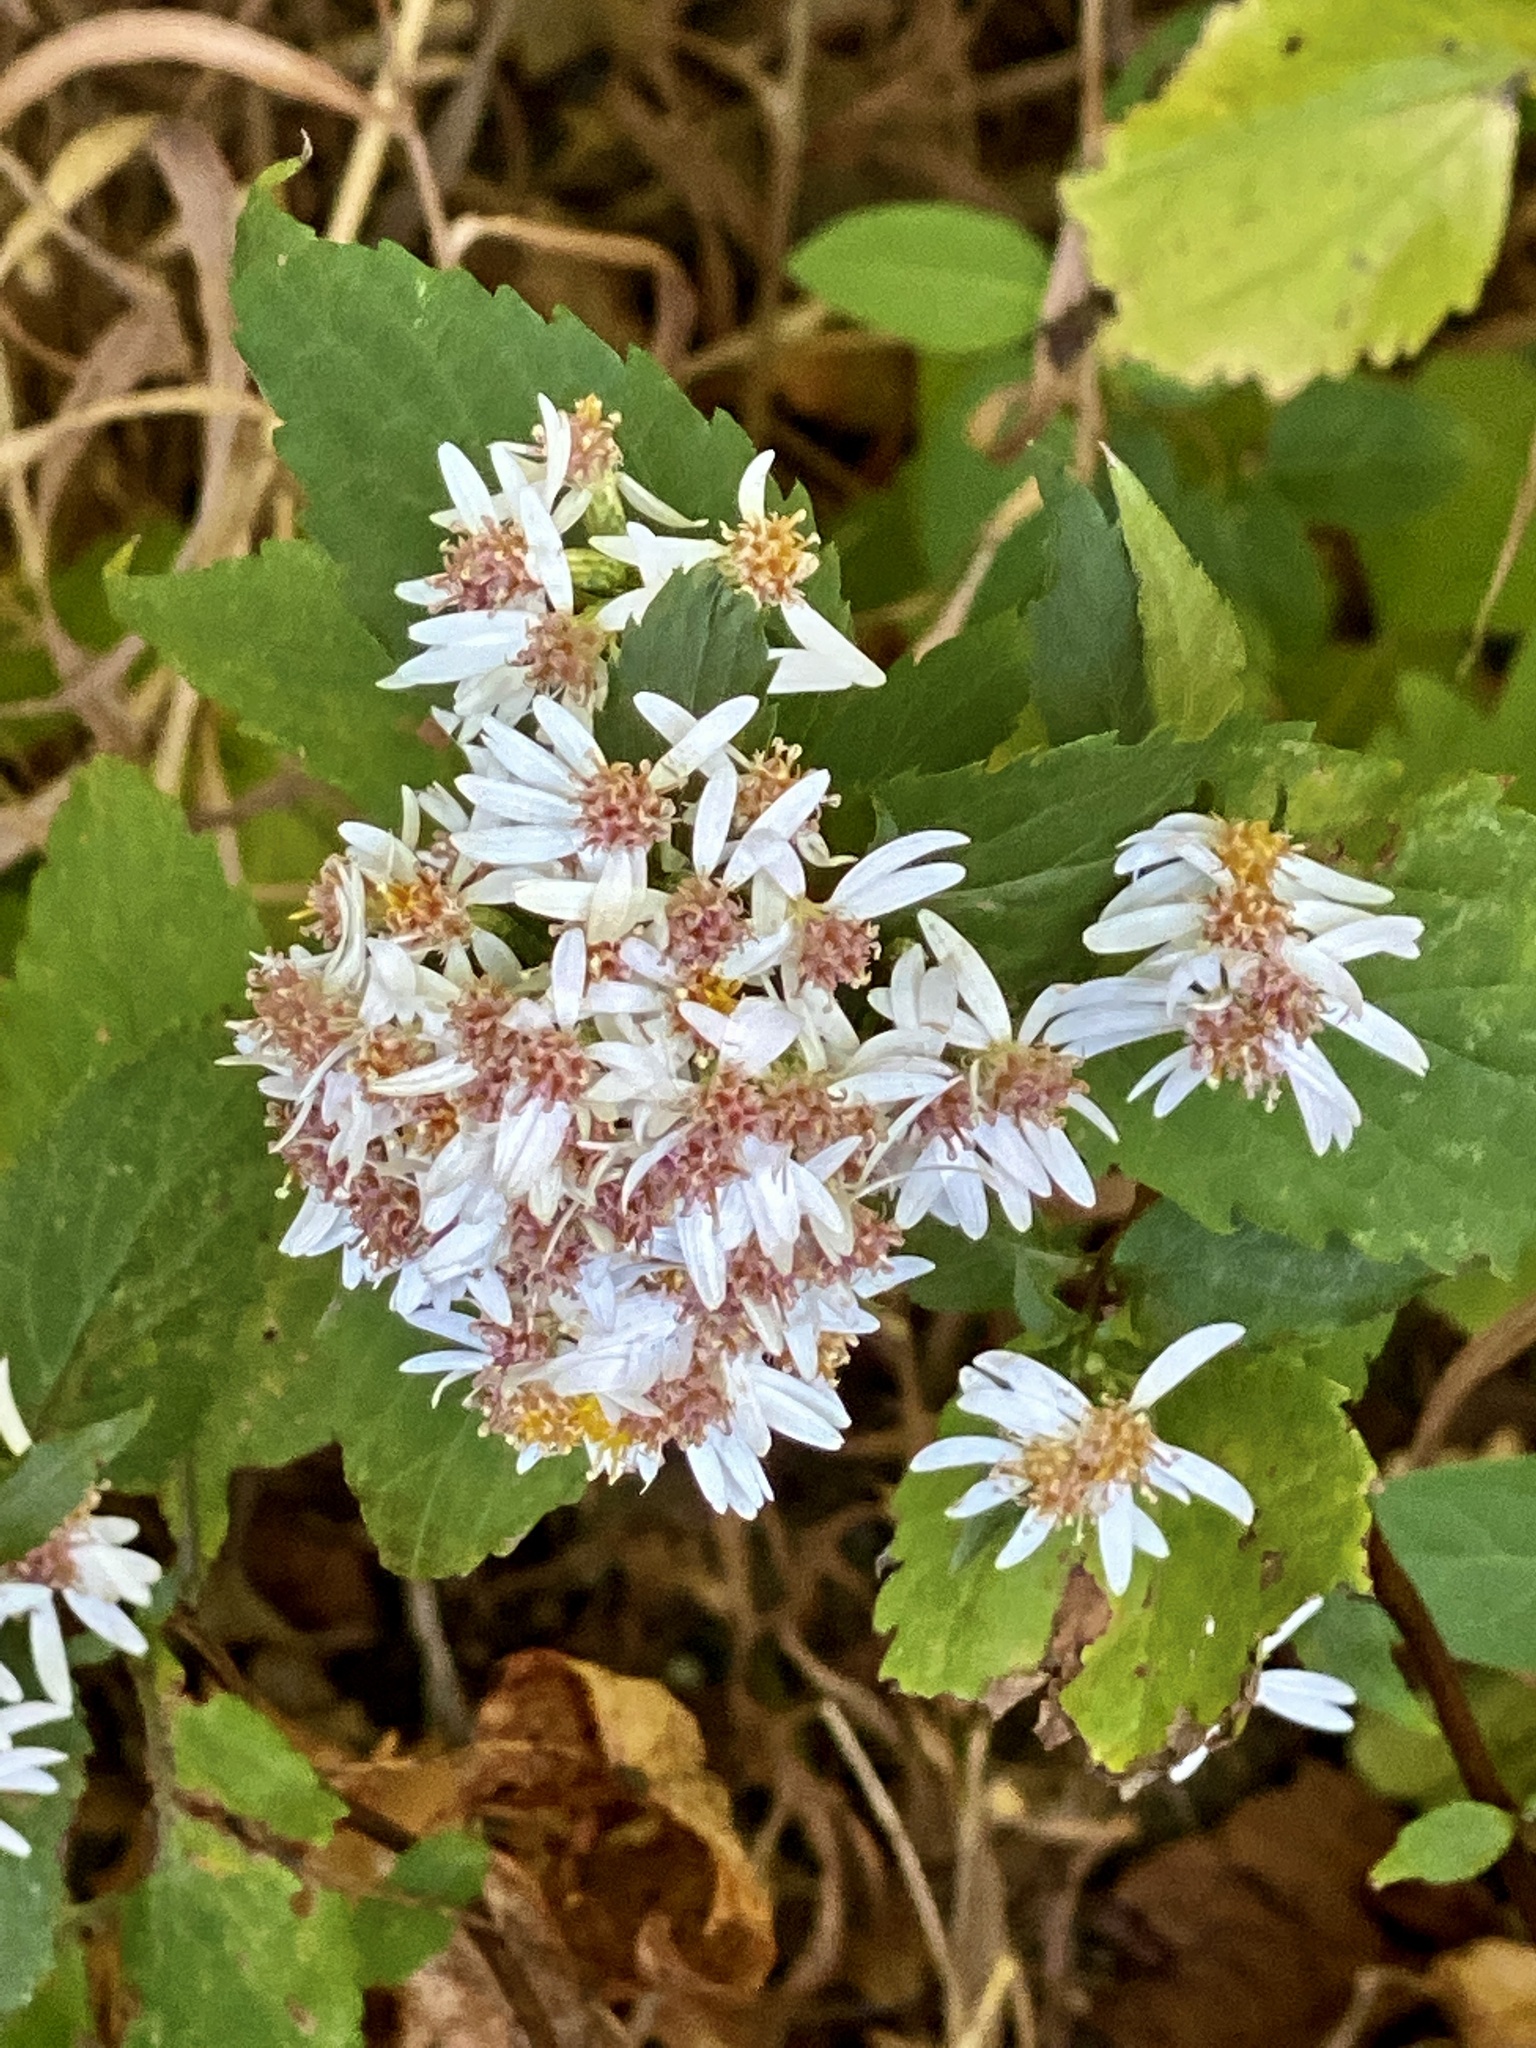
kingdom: Plantae
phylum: Tracheophyta
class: Magnoliopsida
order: Asterales
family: Asteraceae
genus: Eurybia
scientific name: Eurybia divaricata
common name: White wood aster
